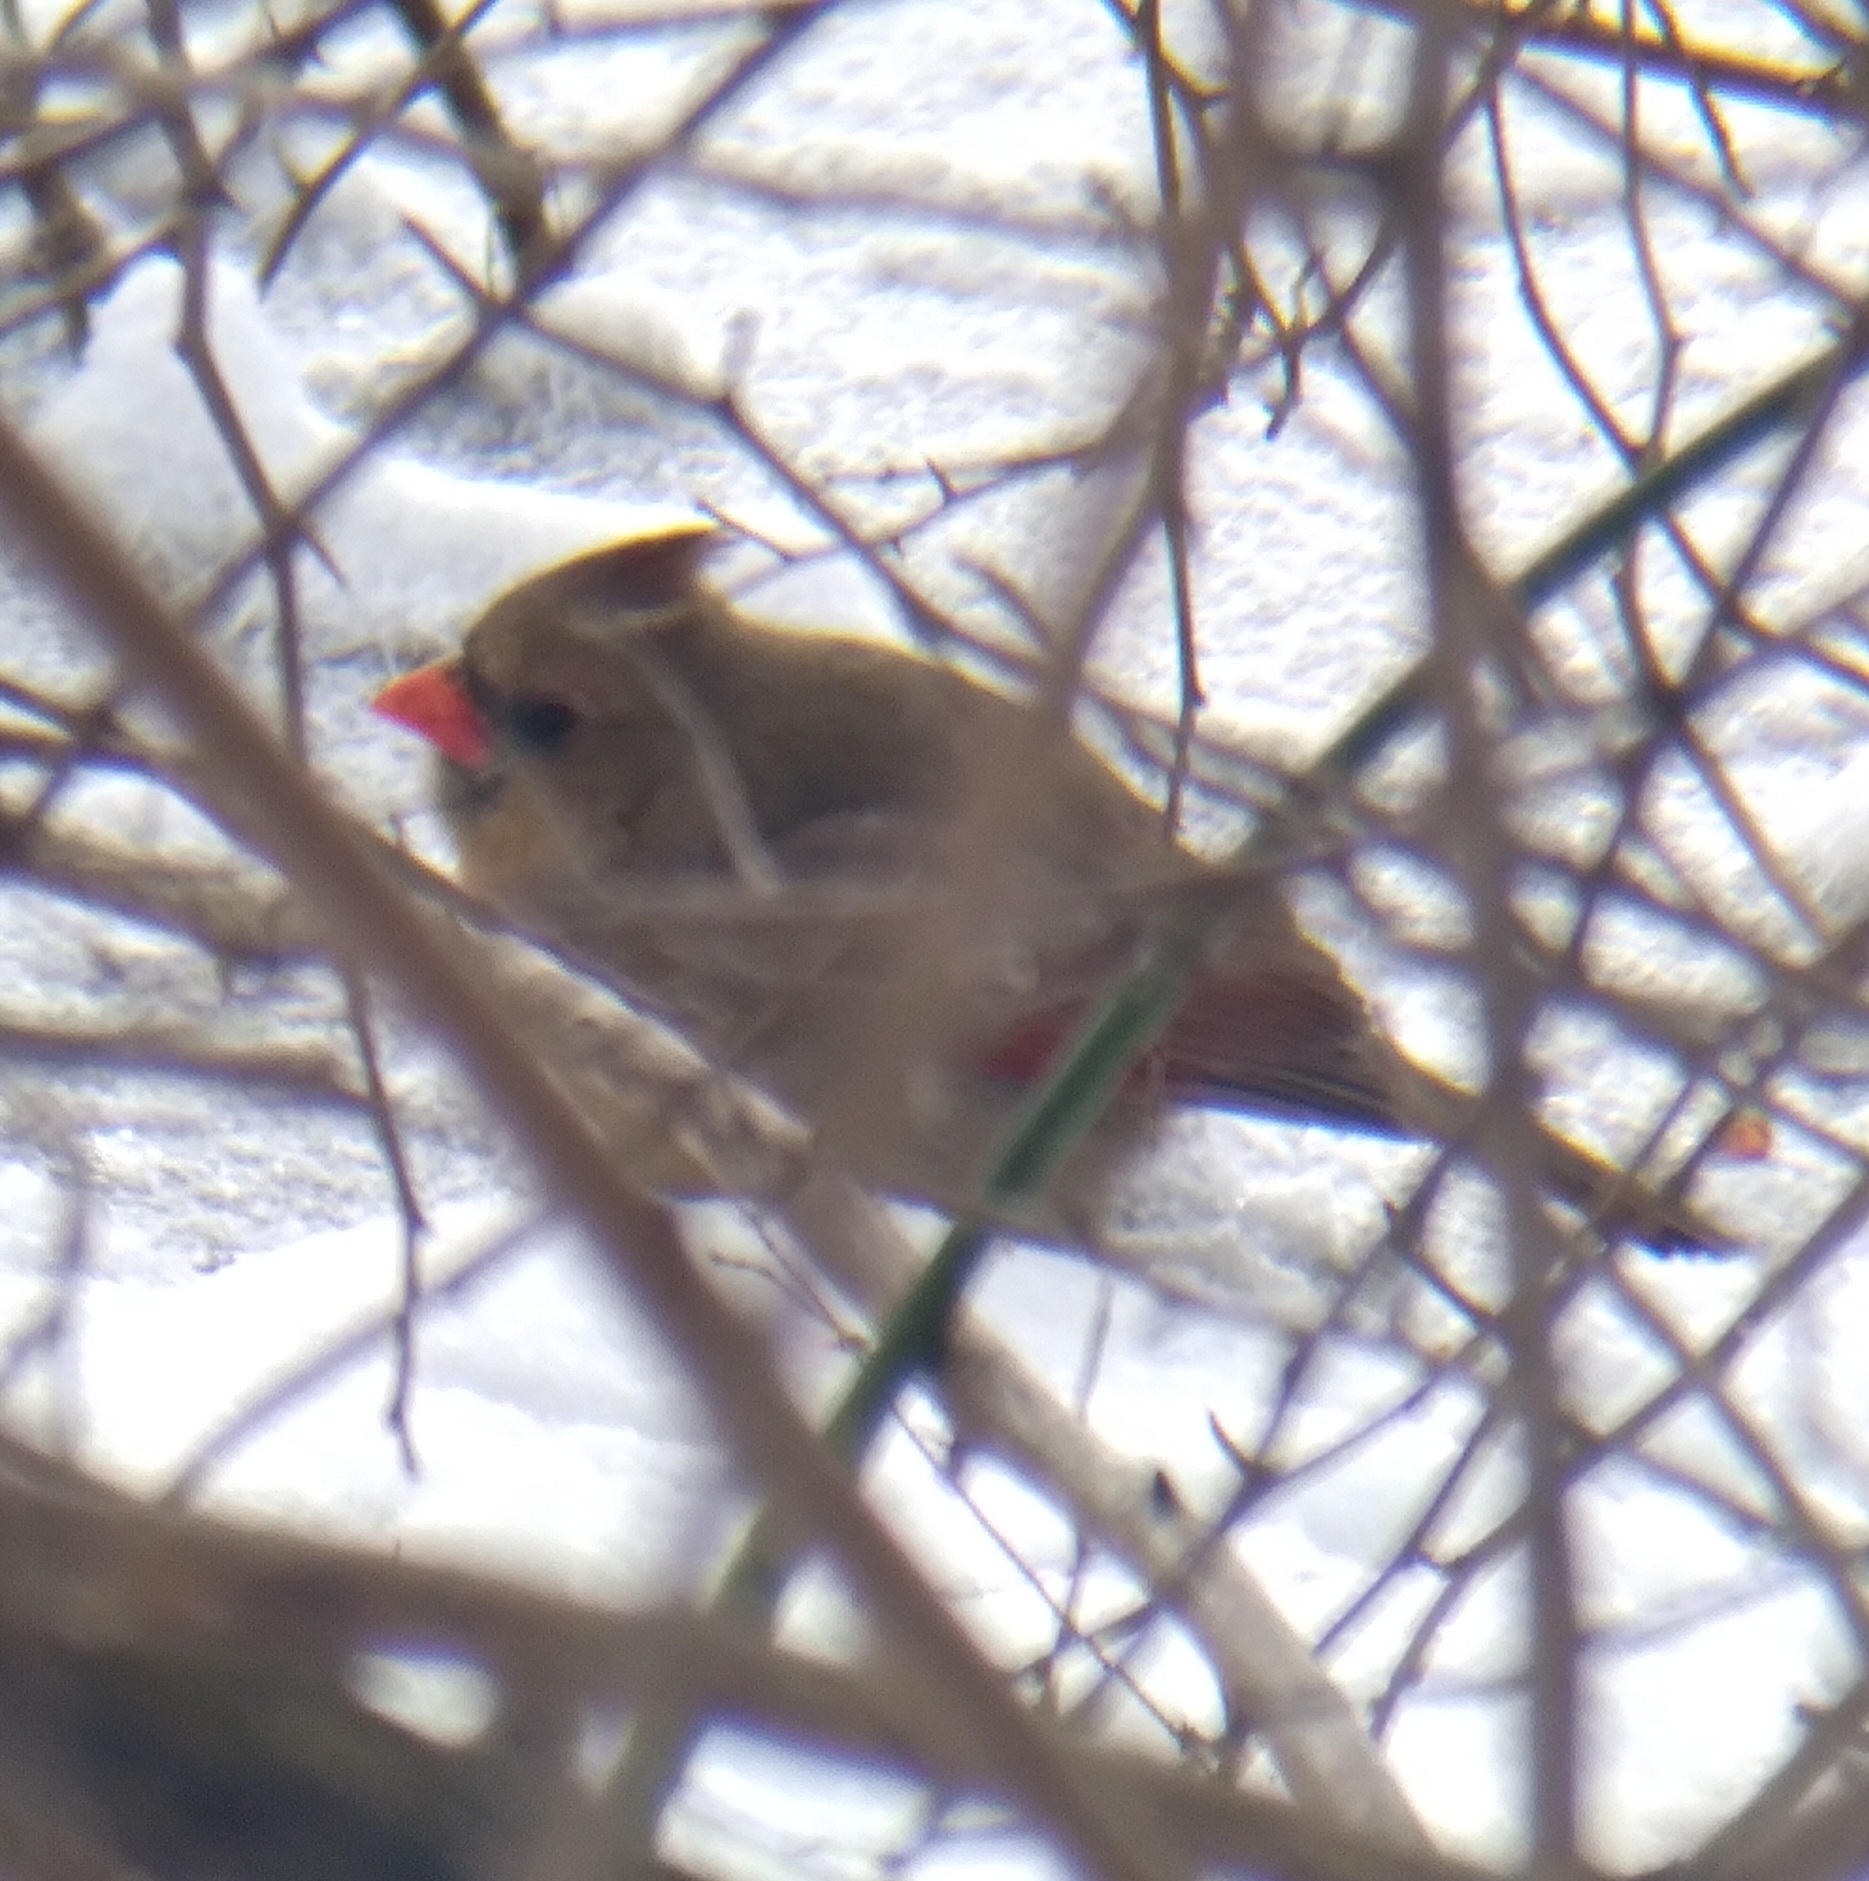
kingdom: Animalia
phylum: Chordata
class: Aves
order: Passeriformes
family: Cardinalidae
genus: Cardinalis
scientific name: Cardinalis cardinalis
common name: Northern cardinal
